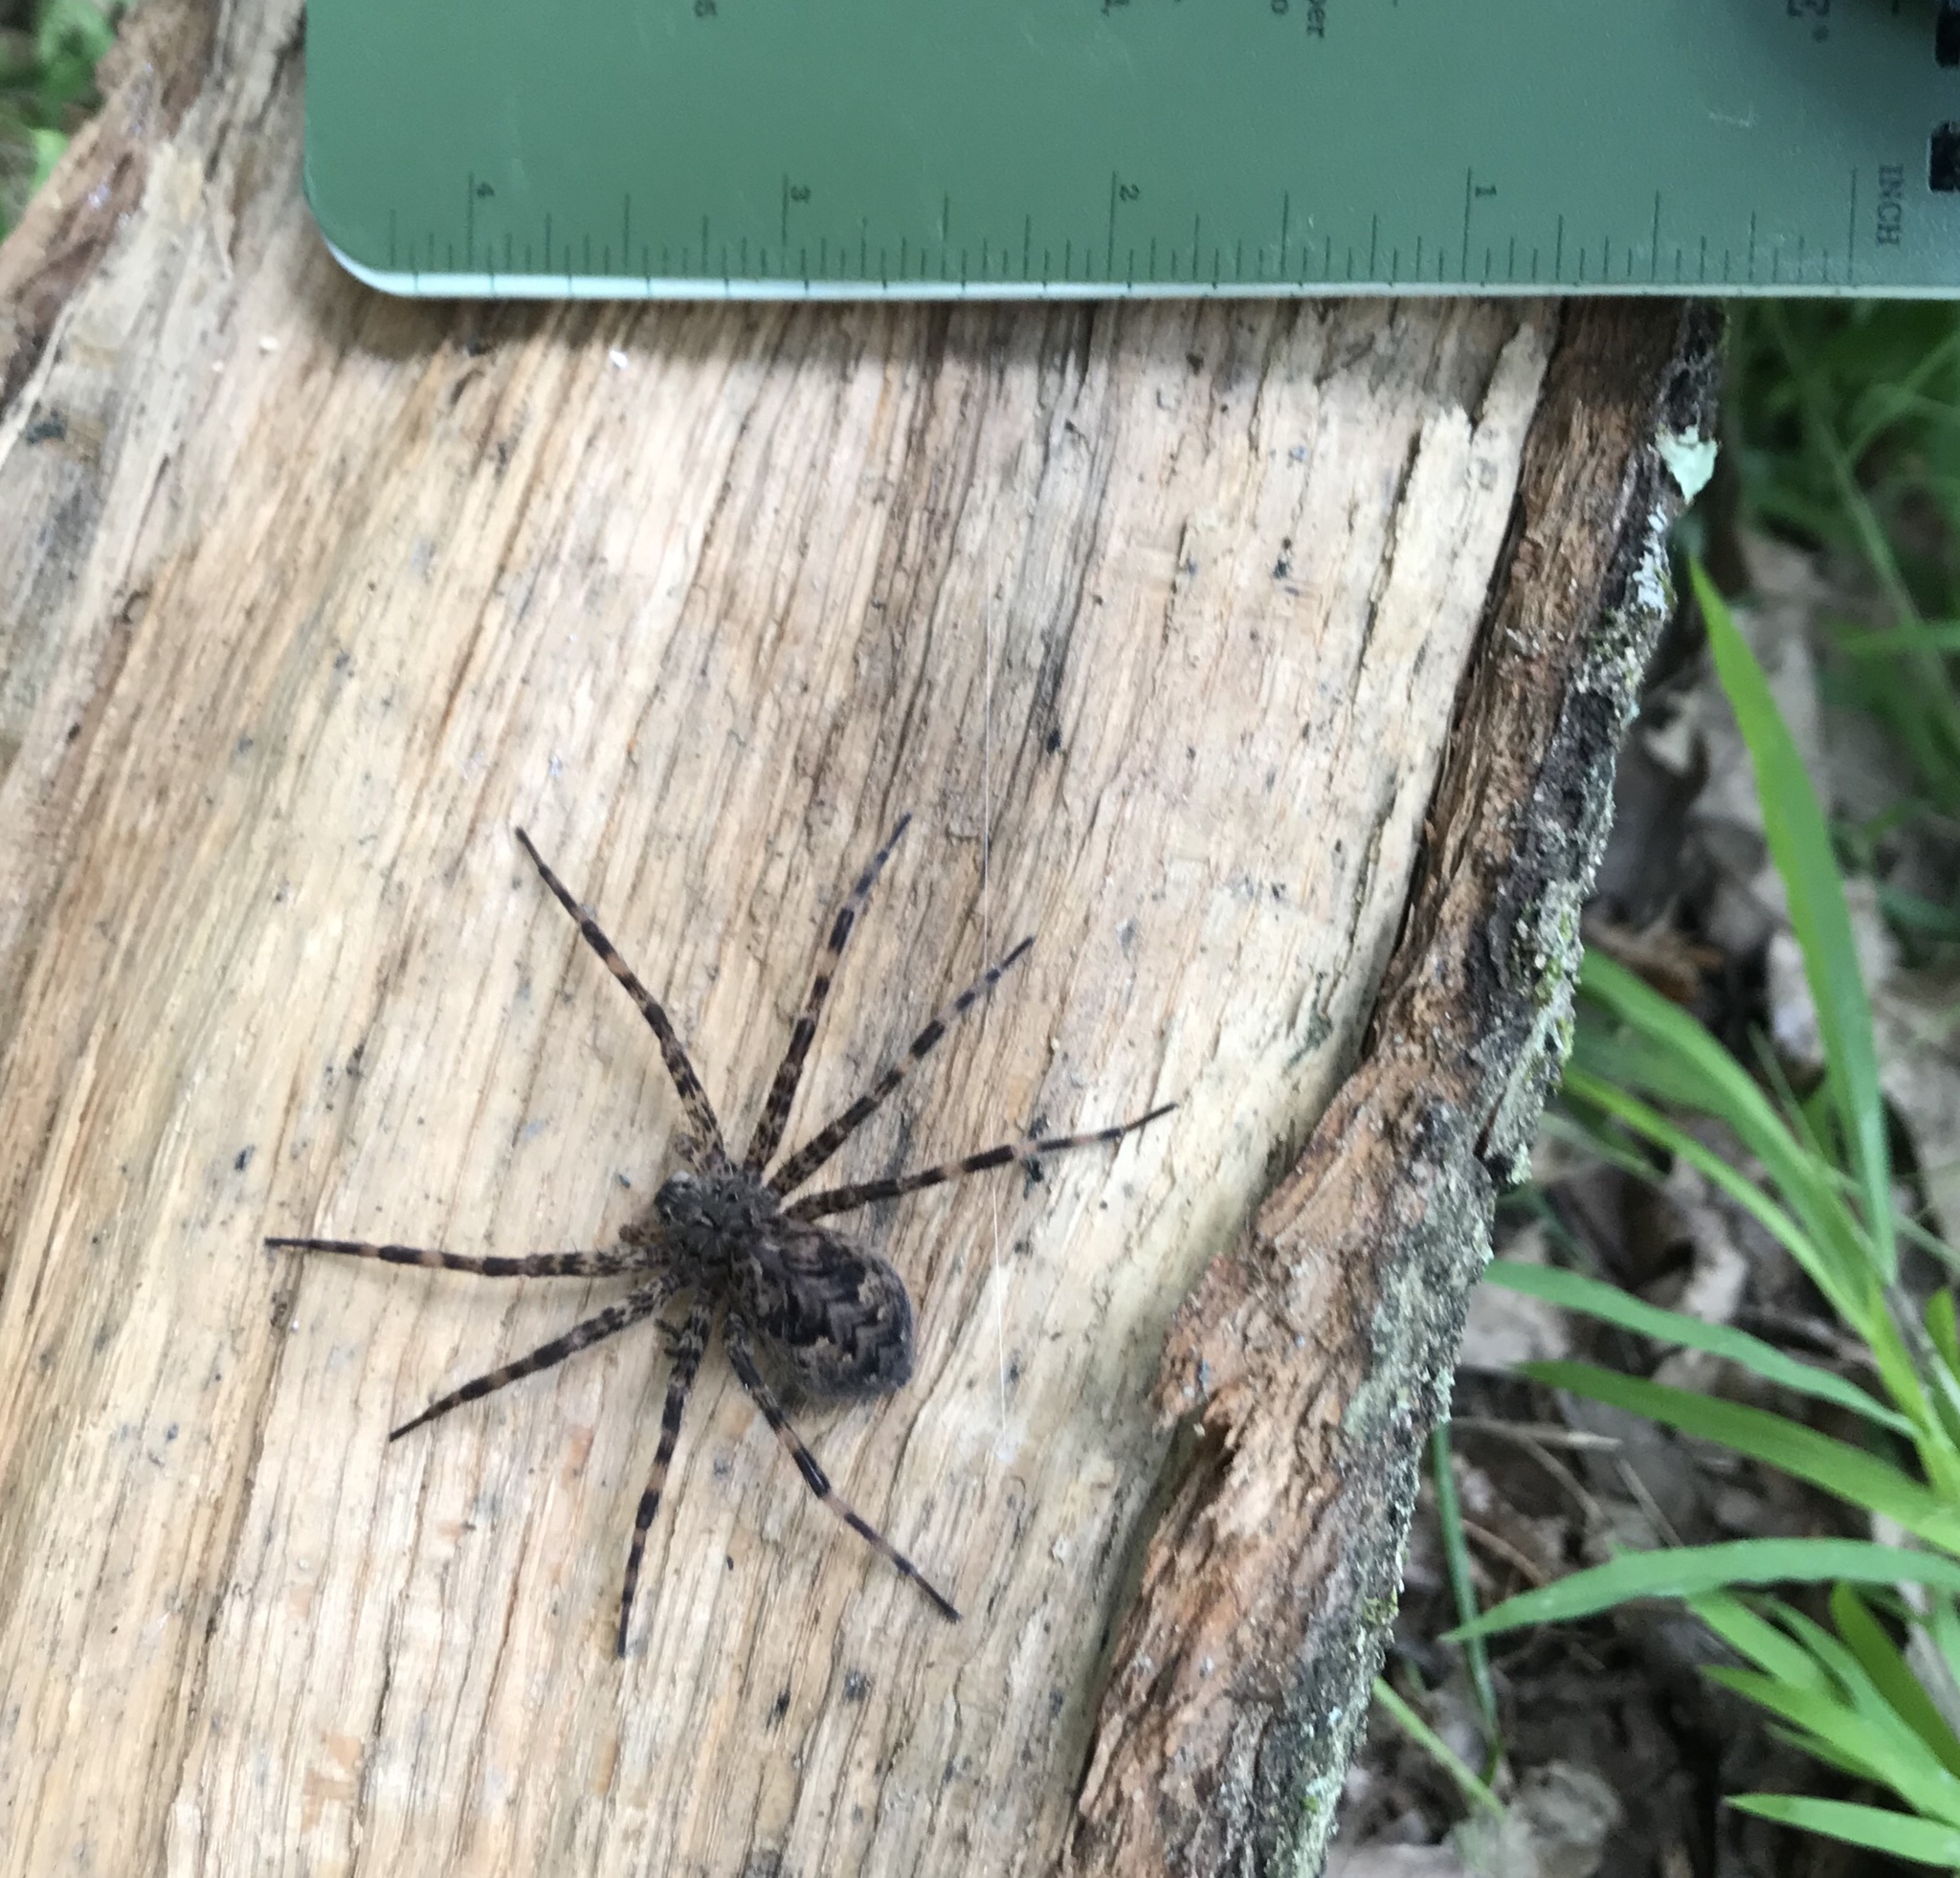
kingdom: Animalia
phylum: Arthropoda
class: Arachnida
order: Araneae
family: Pisauridae
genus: Dolomedes
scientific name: Dolomedes tenebrosus
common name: Dark fishing spider
